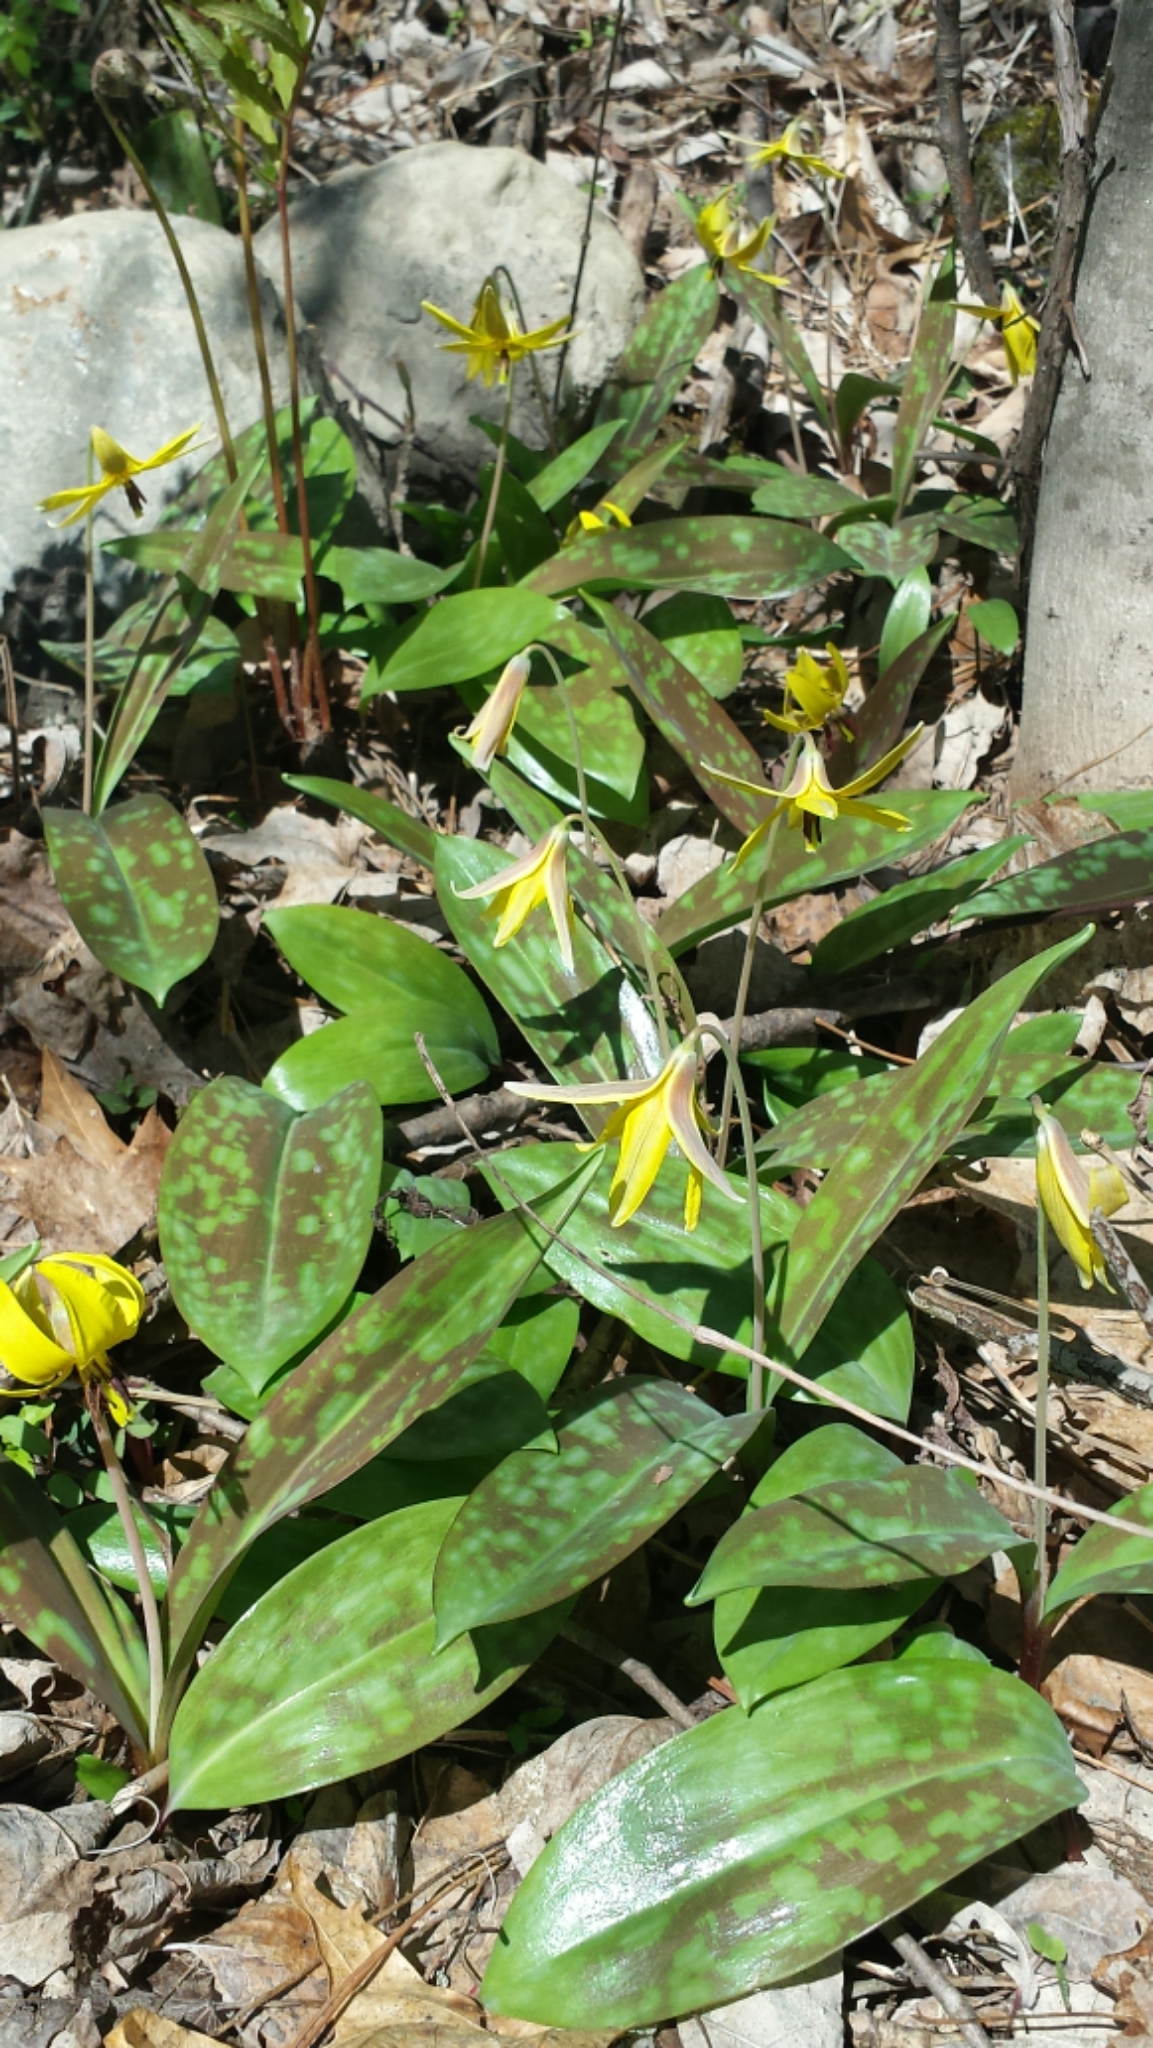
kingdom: Plantae
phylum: Tracheophyta
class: Liliopsida
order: Liliales
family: Liliaceae
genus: Erythronium
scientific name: Erythronium americanum
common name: Yellow adder's-tongue
